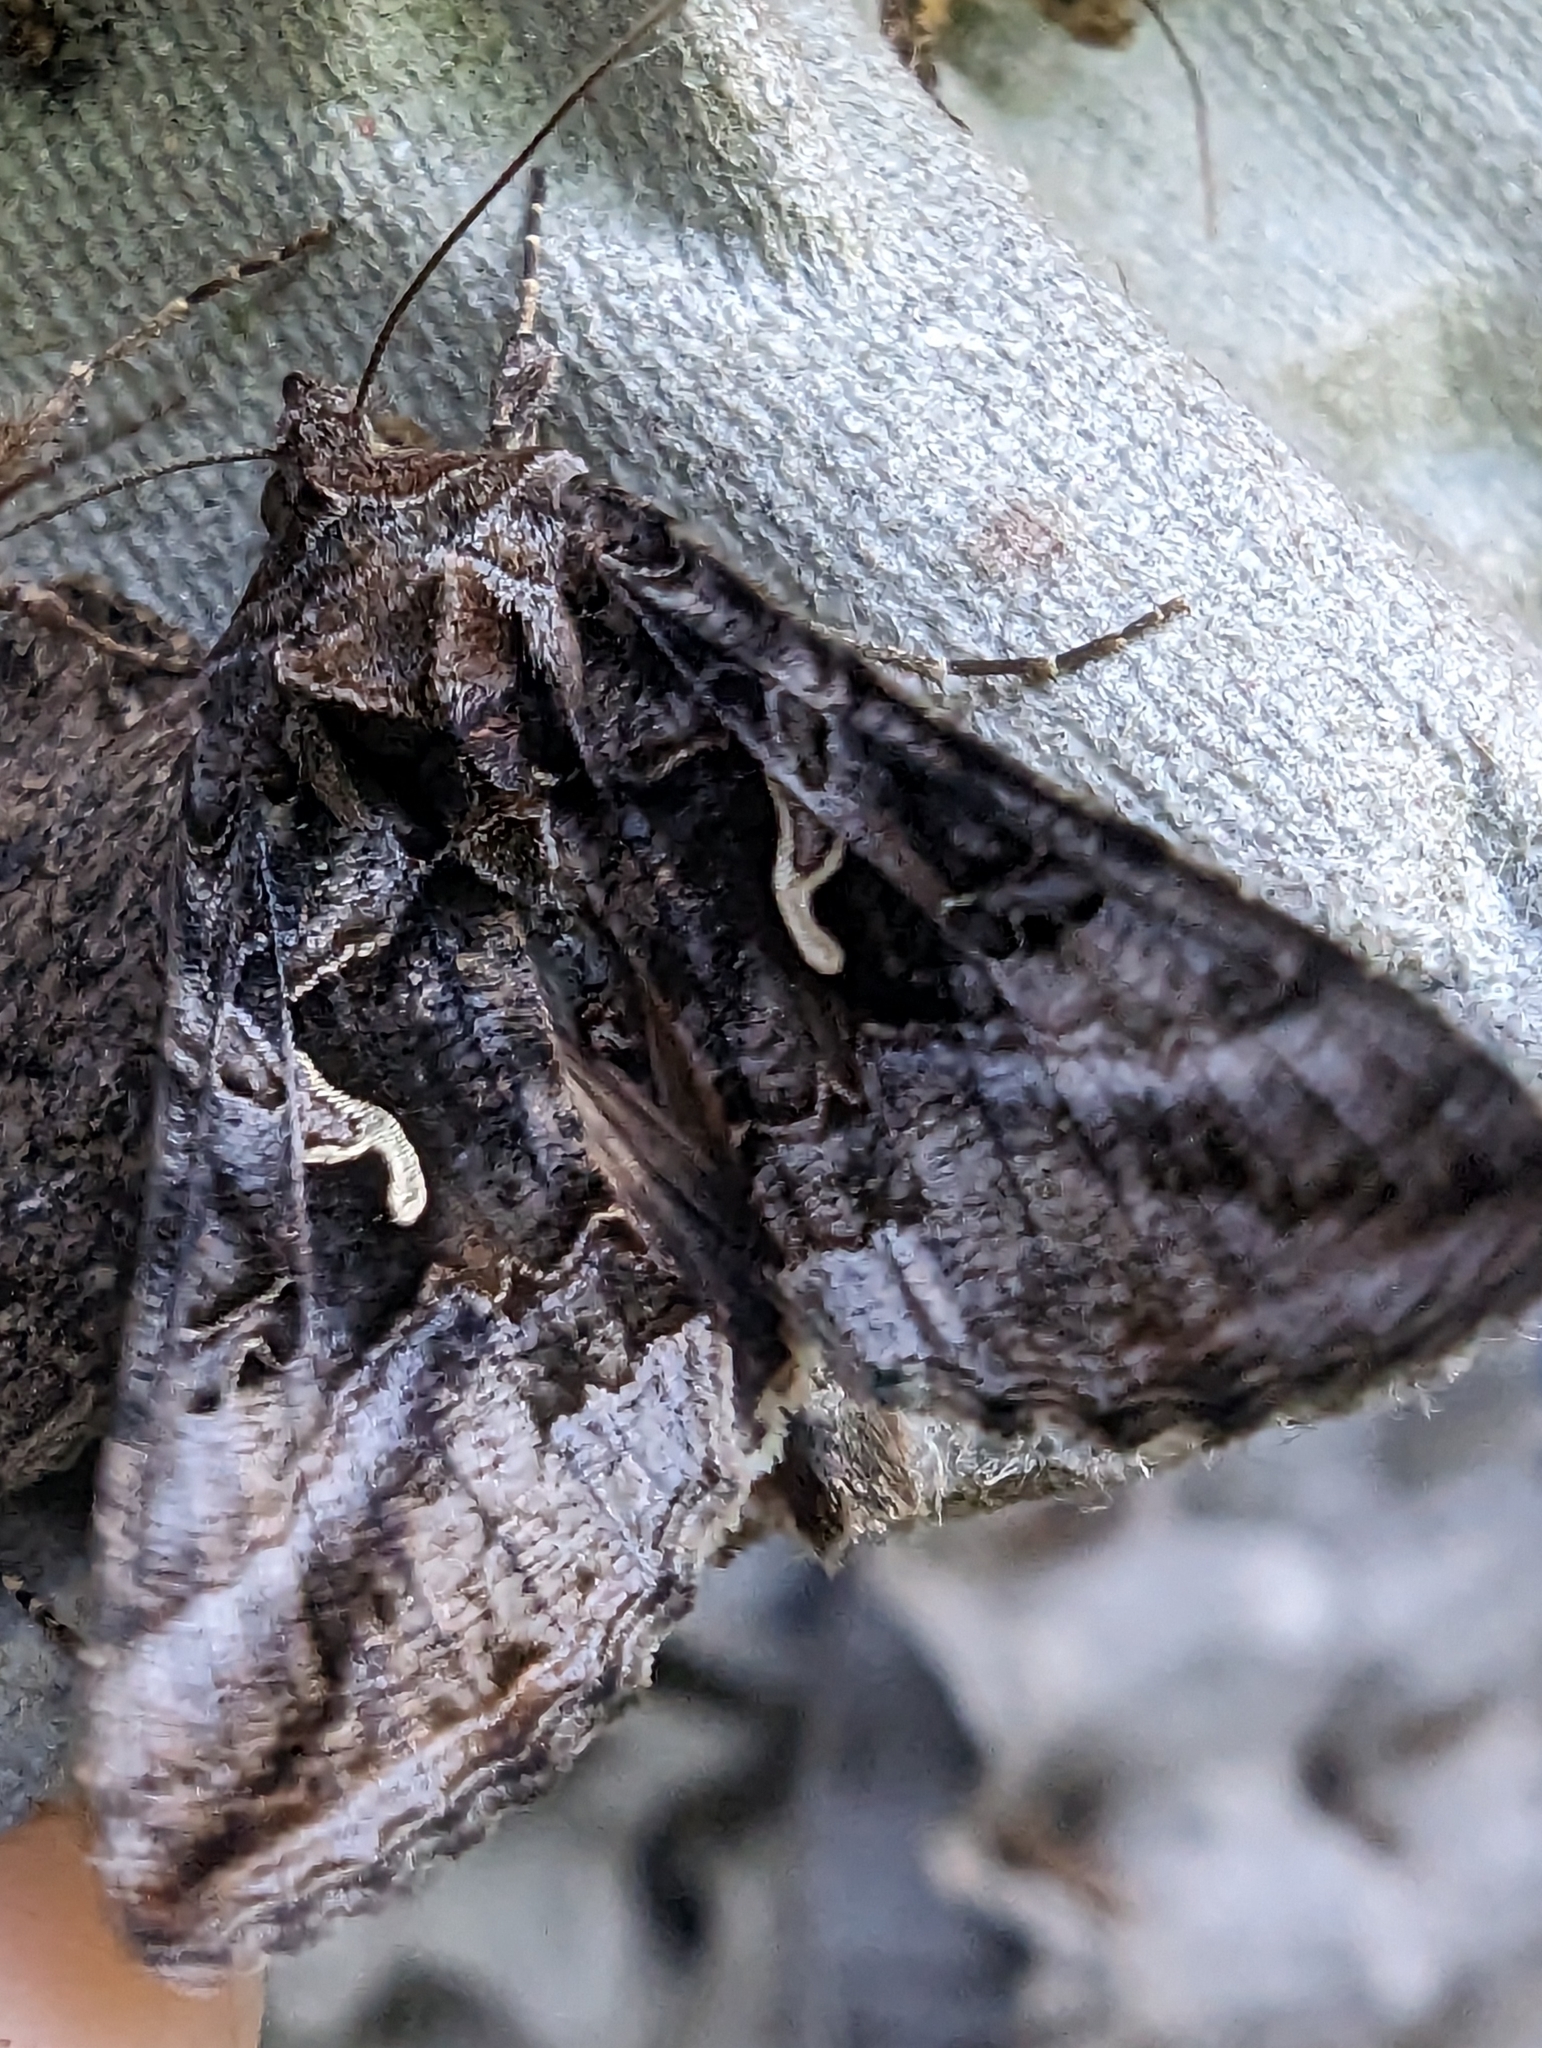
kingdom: Animalia
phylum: Arthropoda
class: Insecta
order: Lepidoptera
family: Noctuidae
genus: Autographa
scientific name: Autographa gamma
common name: Silver y
